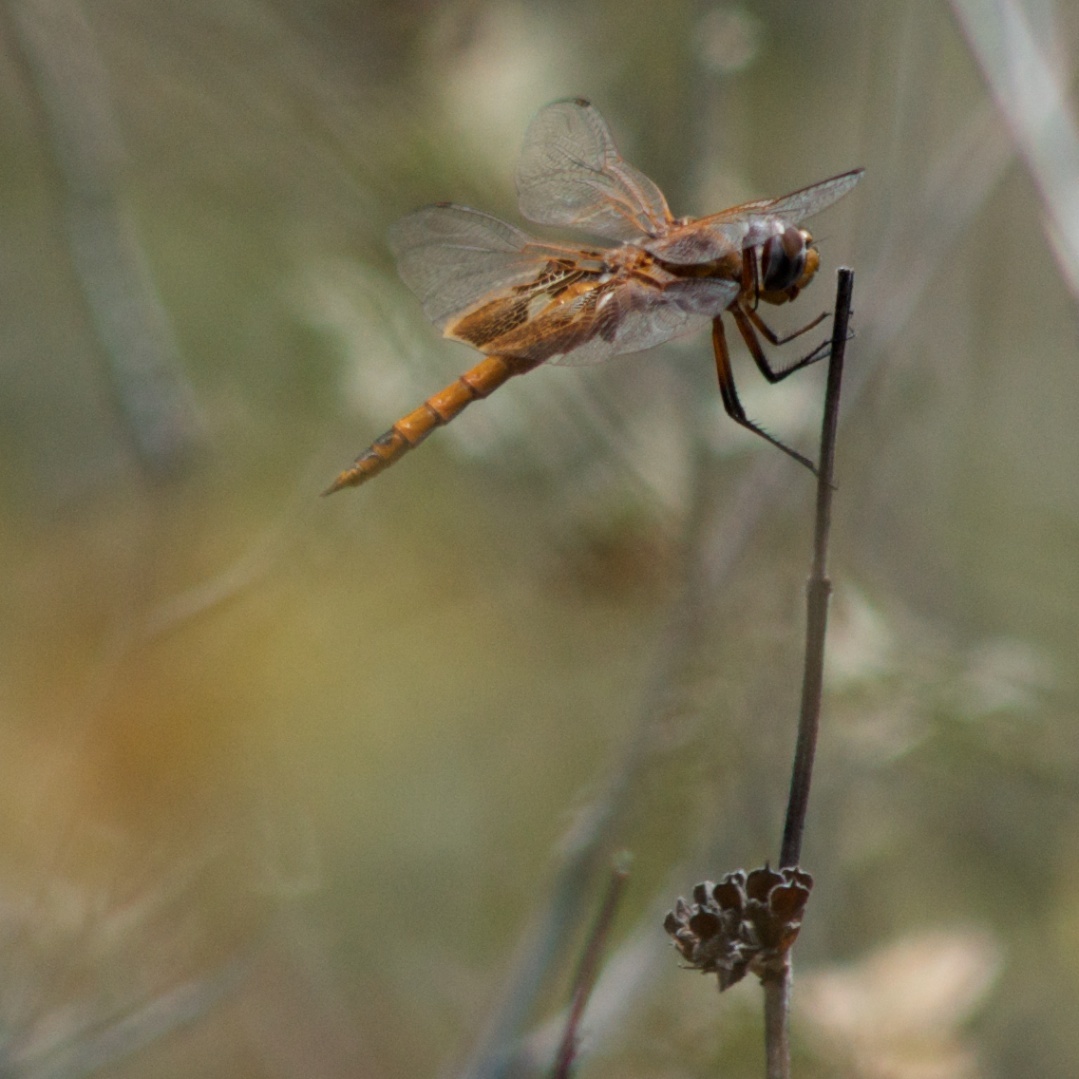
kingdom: Animalia
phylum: Arthropoda
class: Insecta
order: Odonata
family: Libellulidae
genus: Tramea
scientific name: Tramea onusta
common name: Red saddlebags
